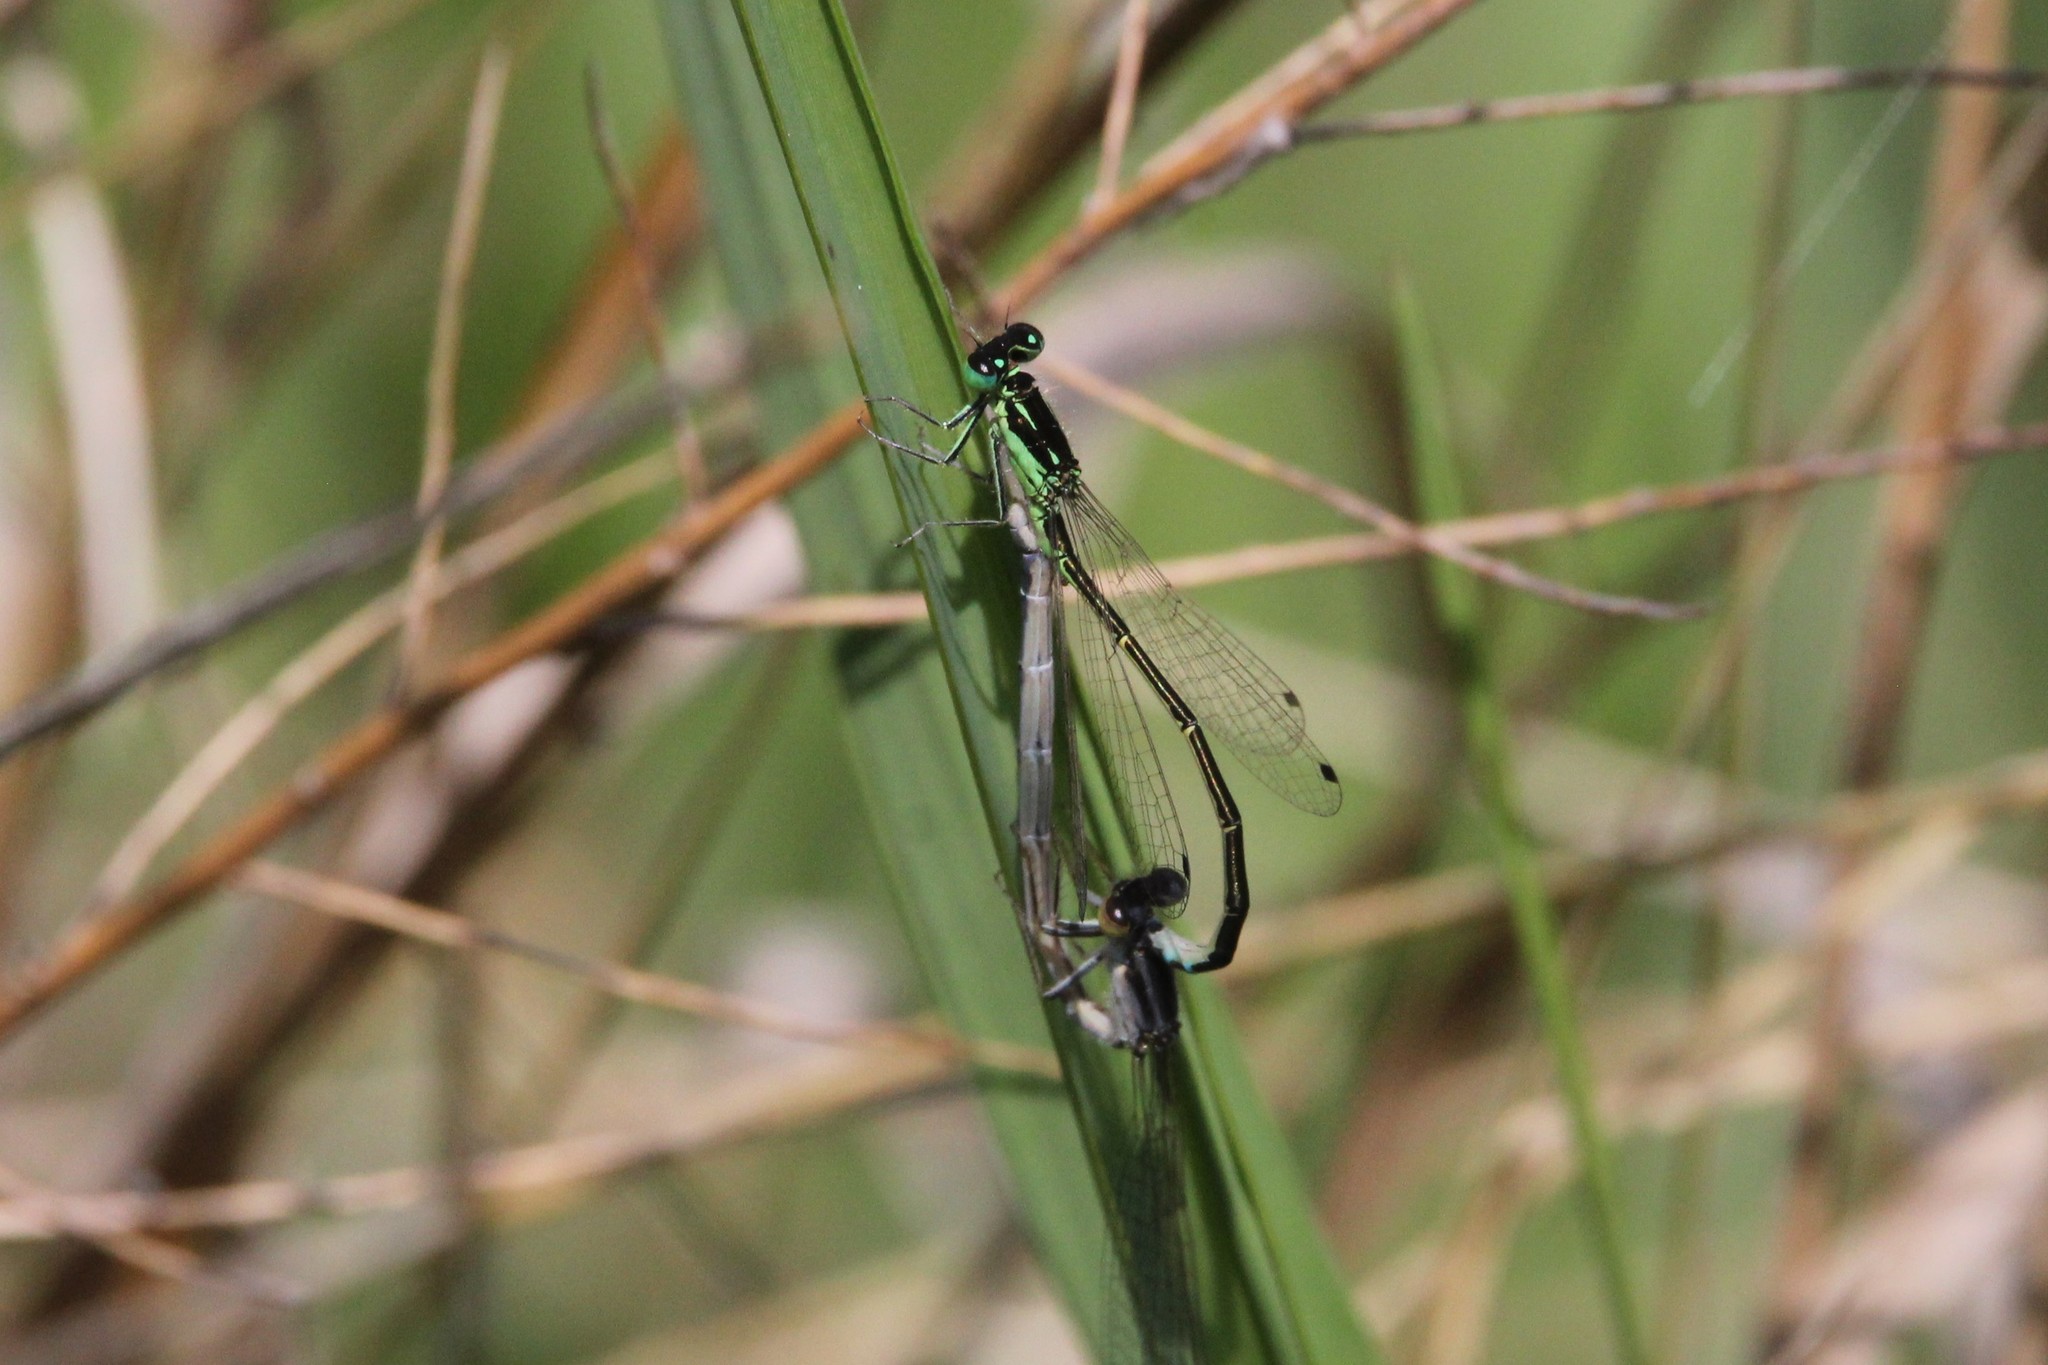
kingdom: Animalia
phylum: Arthropoda
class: Insecta
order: Odonata
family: Coenagrionidae
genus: Ischnura
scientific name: Ischnura verticalis
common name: Eastern forktail
